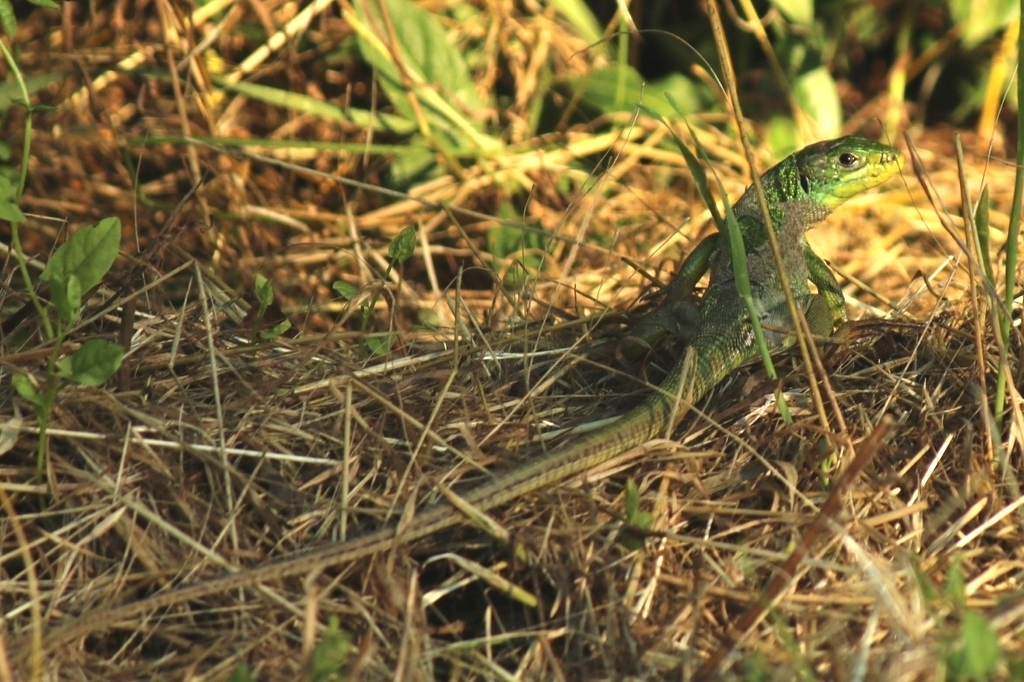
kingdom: Animalia
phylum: Chordata
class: Squamata
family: Lacertidae
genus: Lacerta
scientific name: Lacerta bilineata
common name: Western green lizard
